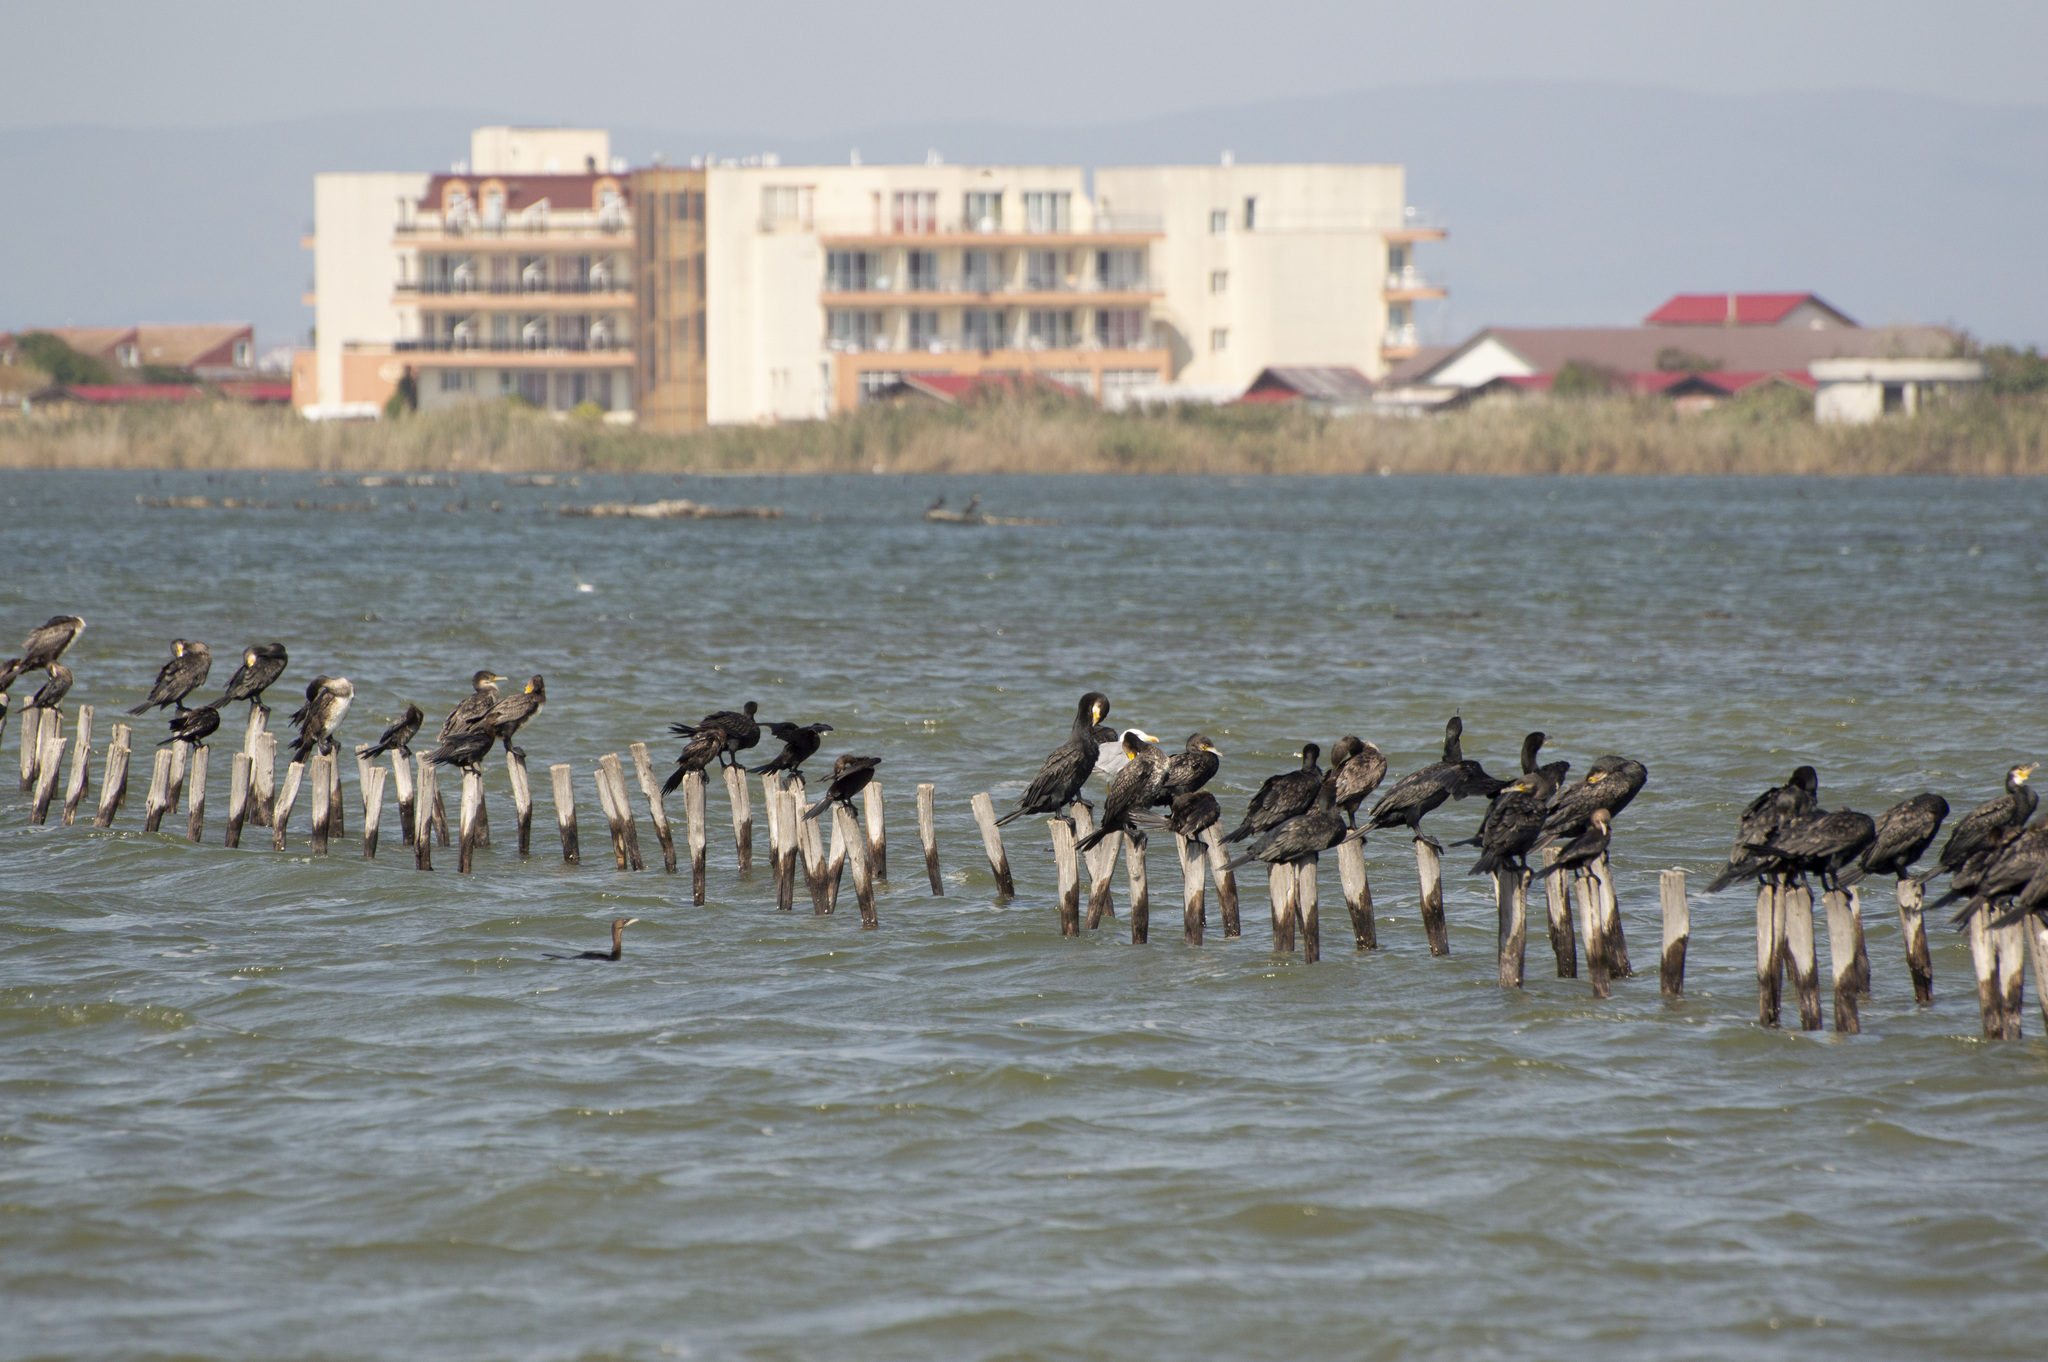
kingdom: Animalia
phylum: Chordata
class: Aves
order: Suliformes
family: Phalacrocoracidae
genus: Phalacrocorax
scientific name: Phalacrocorax carbo
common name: Great cormorant
